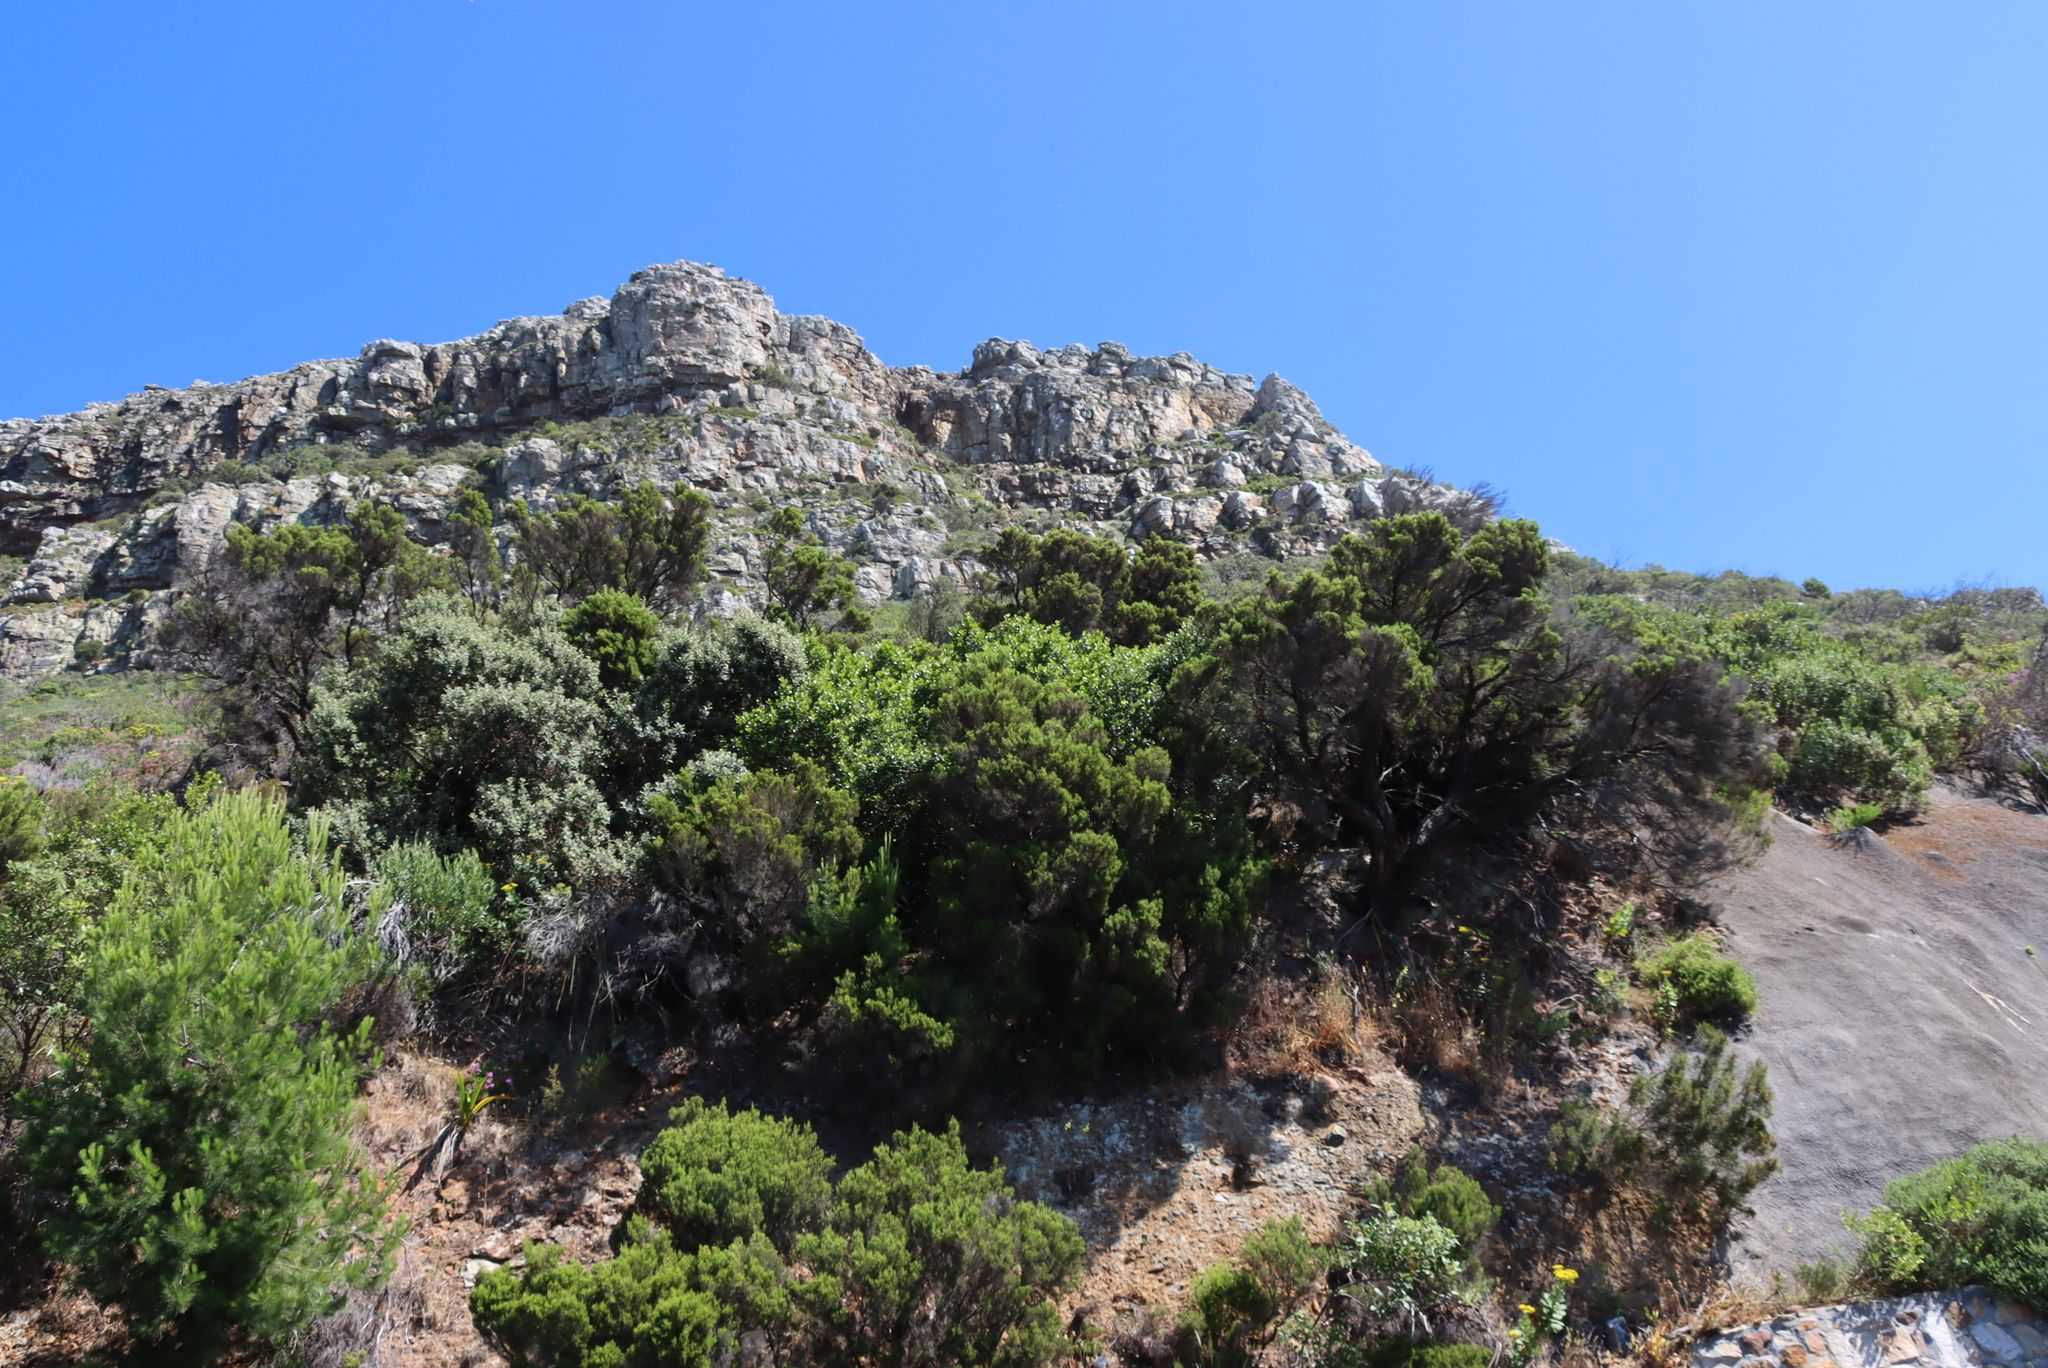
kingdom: Plantae
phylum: Tracheophyta
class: Magnoliopsida
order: Asterales
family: Asteraceae
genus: Tarchonanthus
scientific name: Tarchonanthus littoralis
